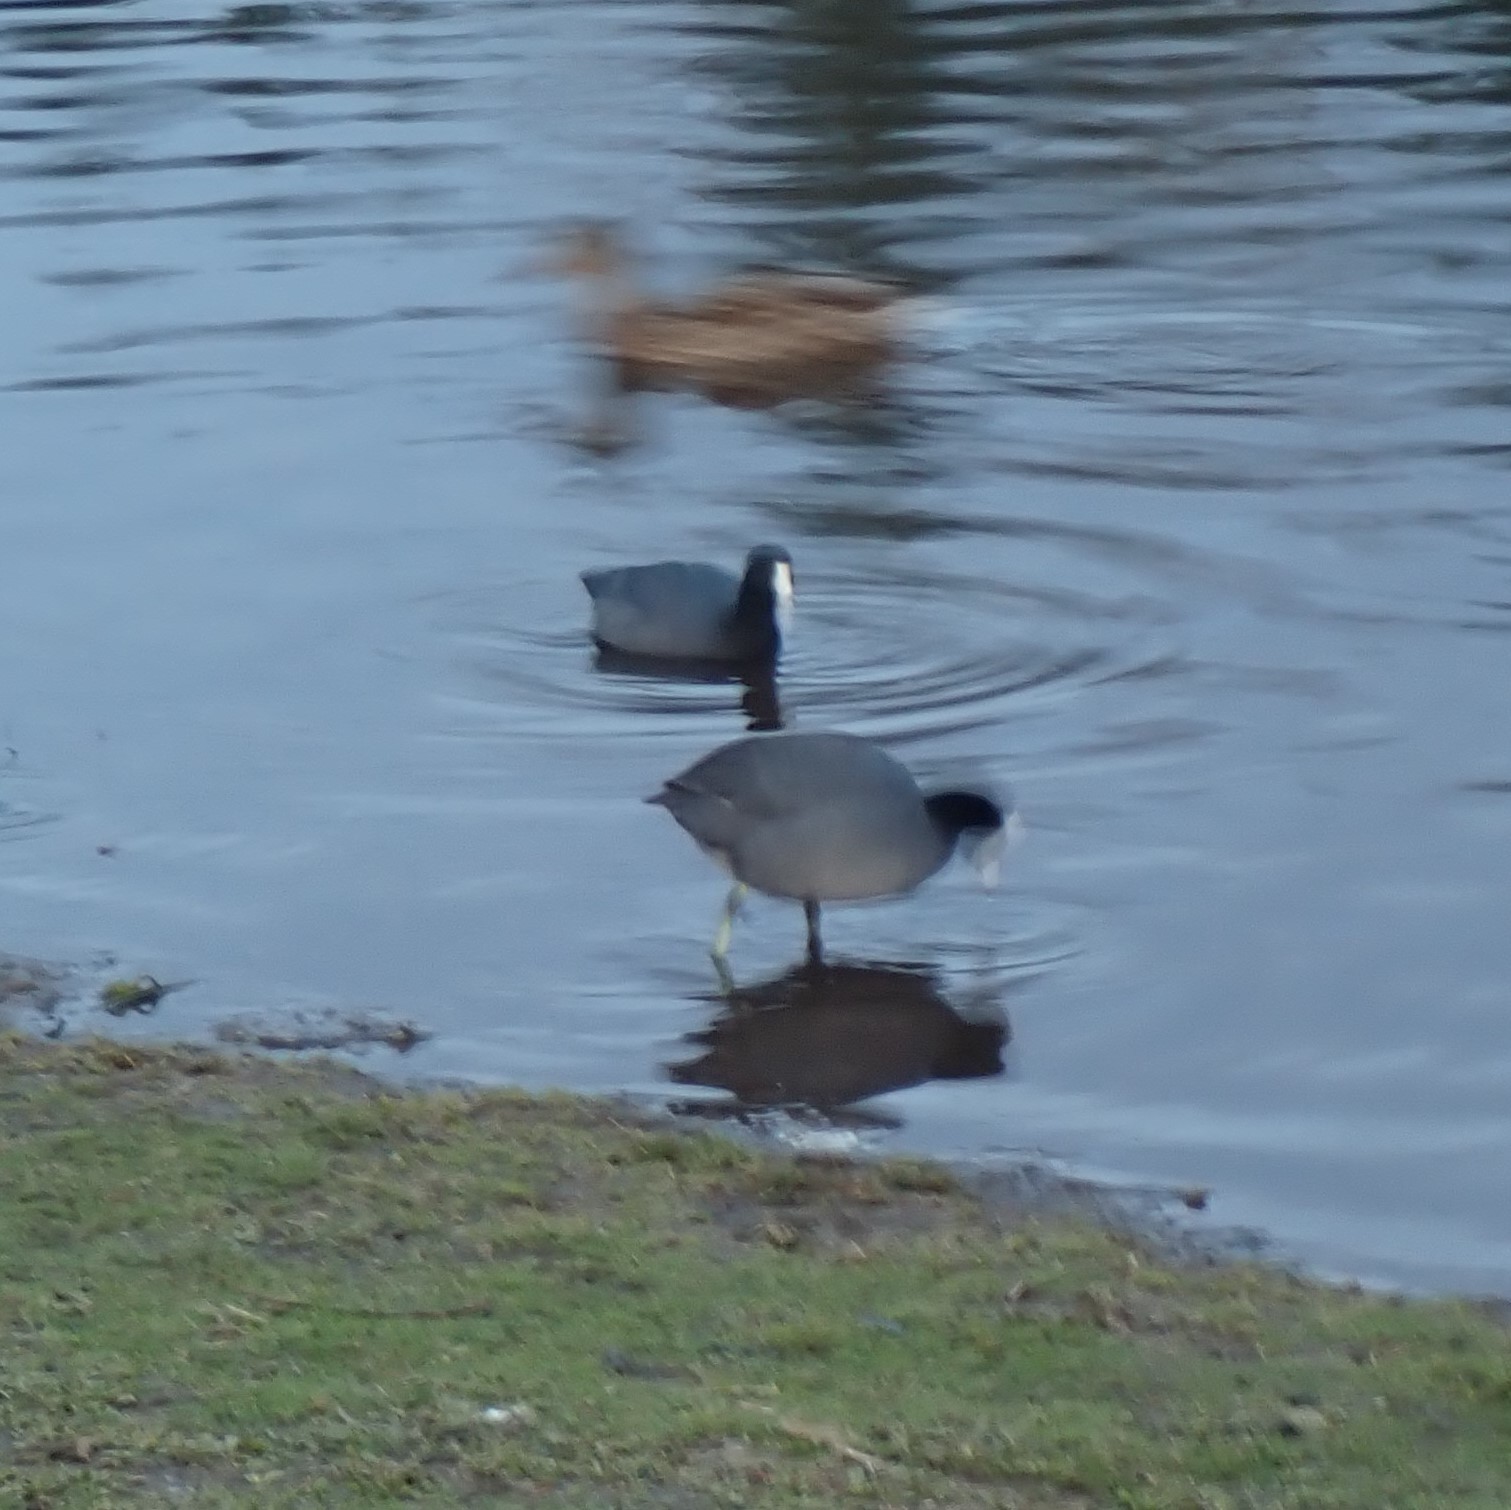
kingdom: Animalia
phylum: Chordata
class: Aves
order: Gruiformes
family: Rallidae
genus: Fulica
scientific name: Fulica americana
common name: American coot
